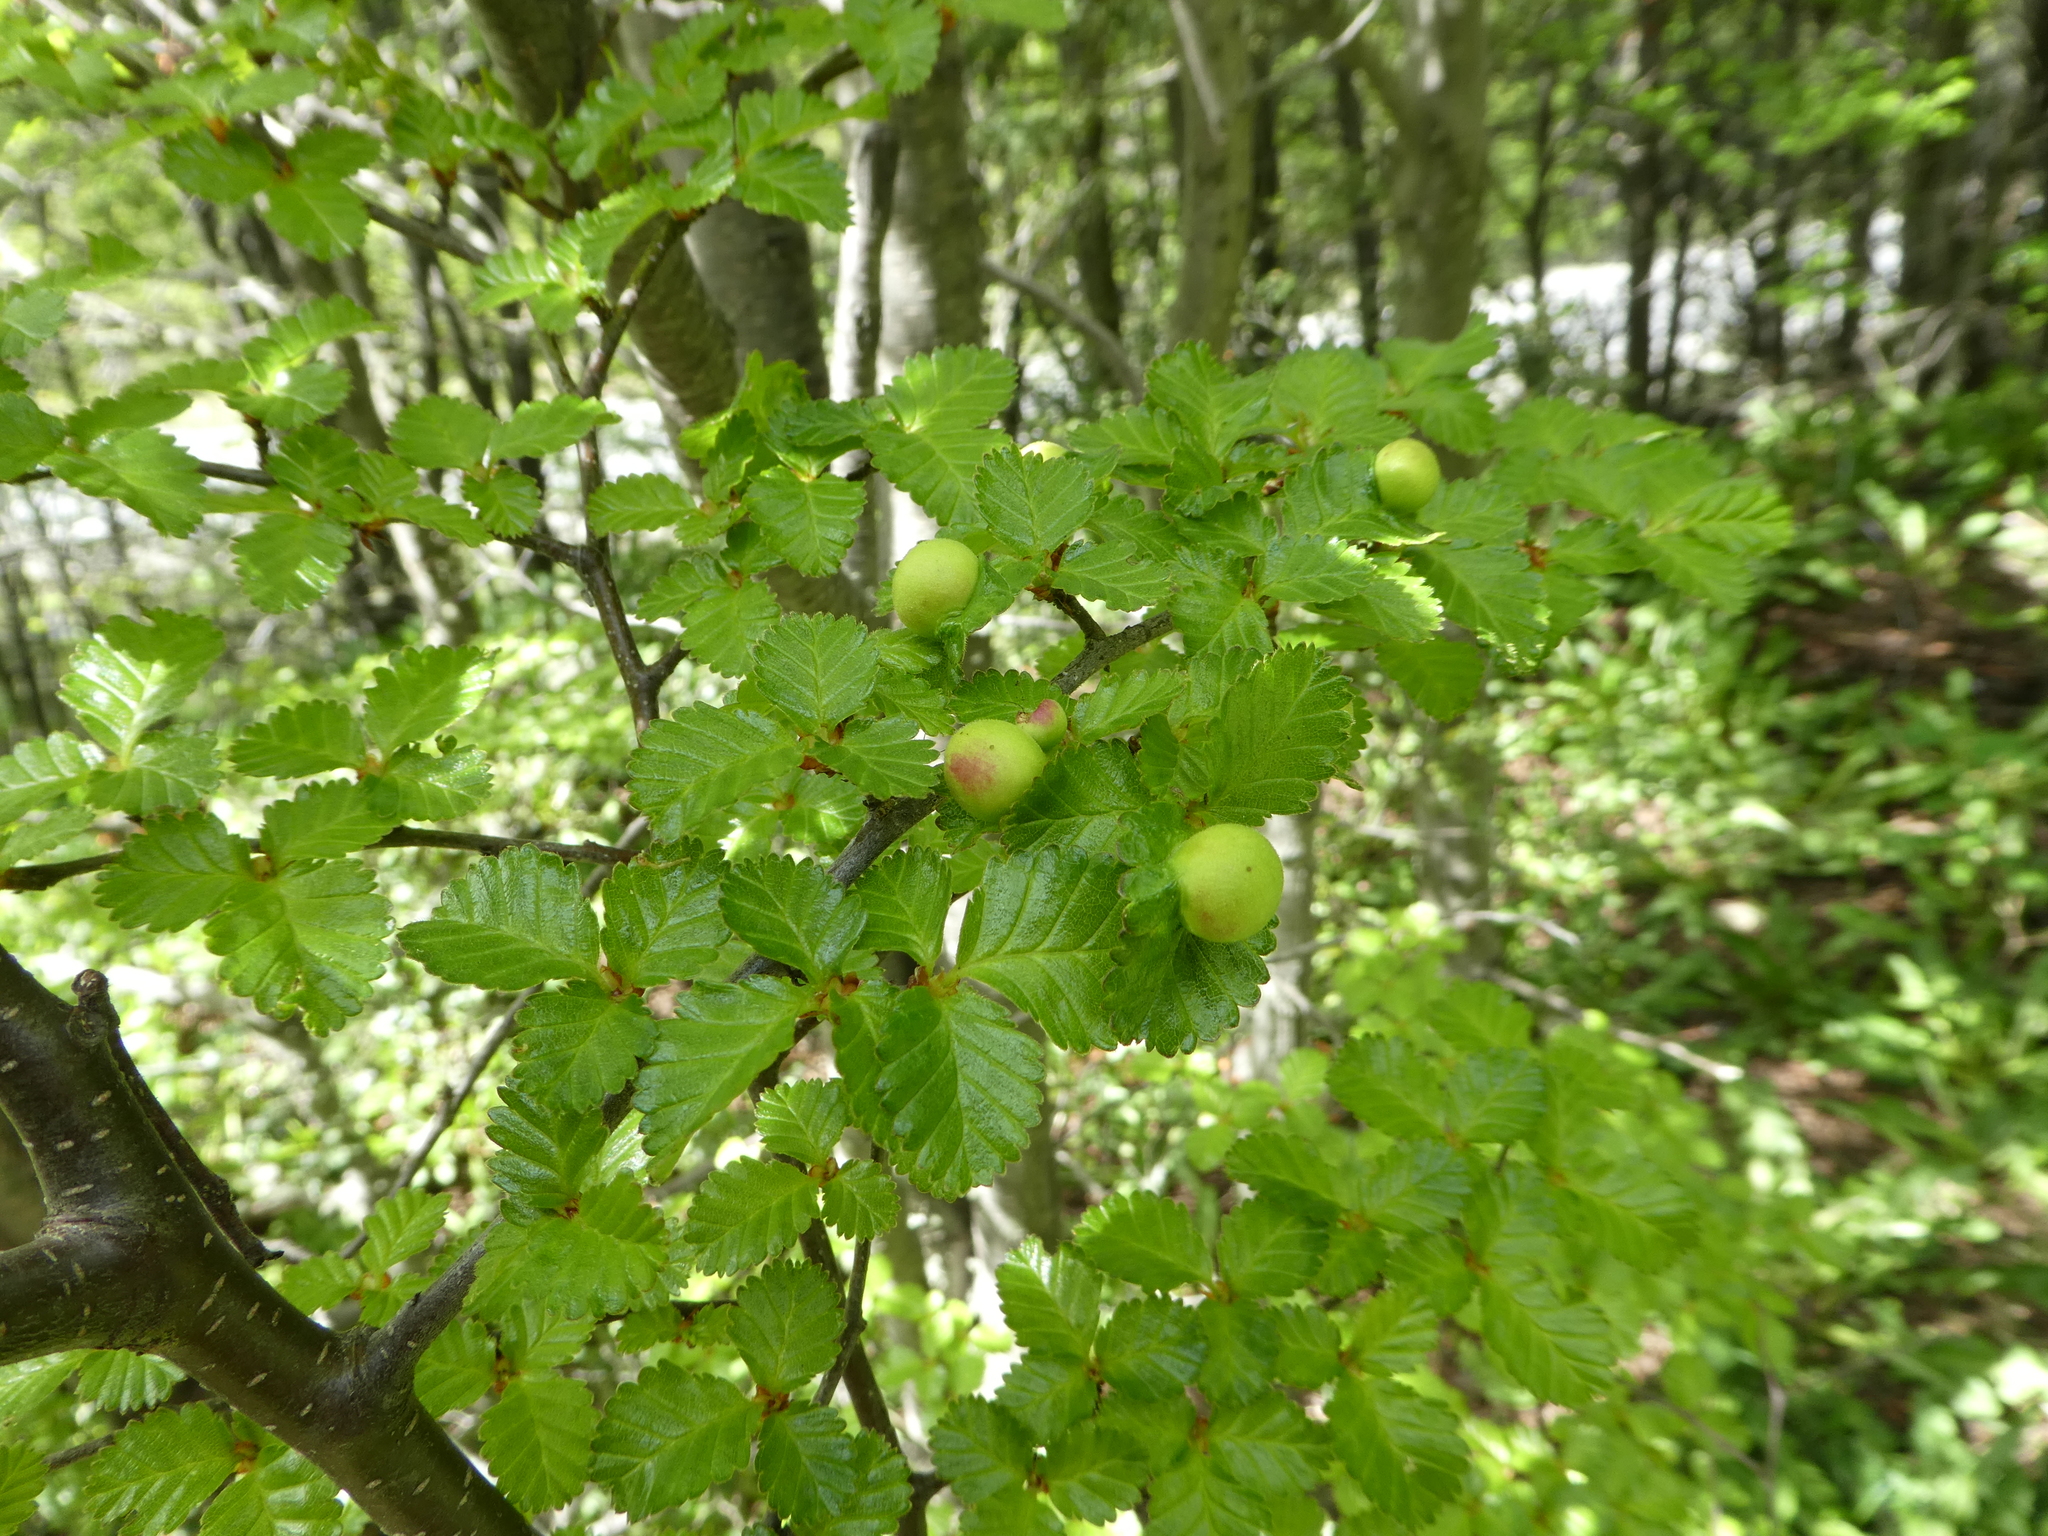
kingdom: Plantae
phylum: Tracheophyta
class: Magnoliopsida
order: Fagales
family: Nothofagaceae
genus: Nothofagus
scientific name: Nothofagus pumilio
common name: Lenga beech
